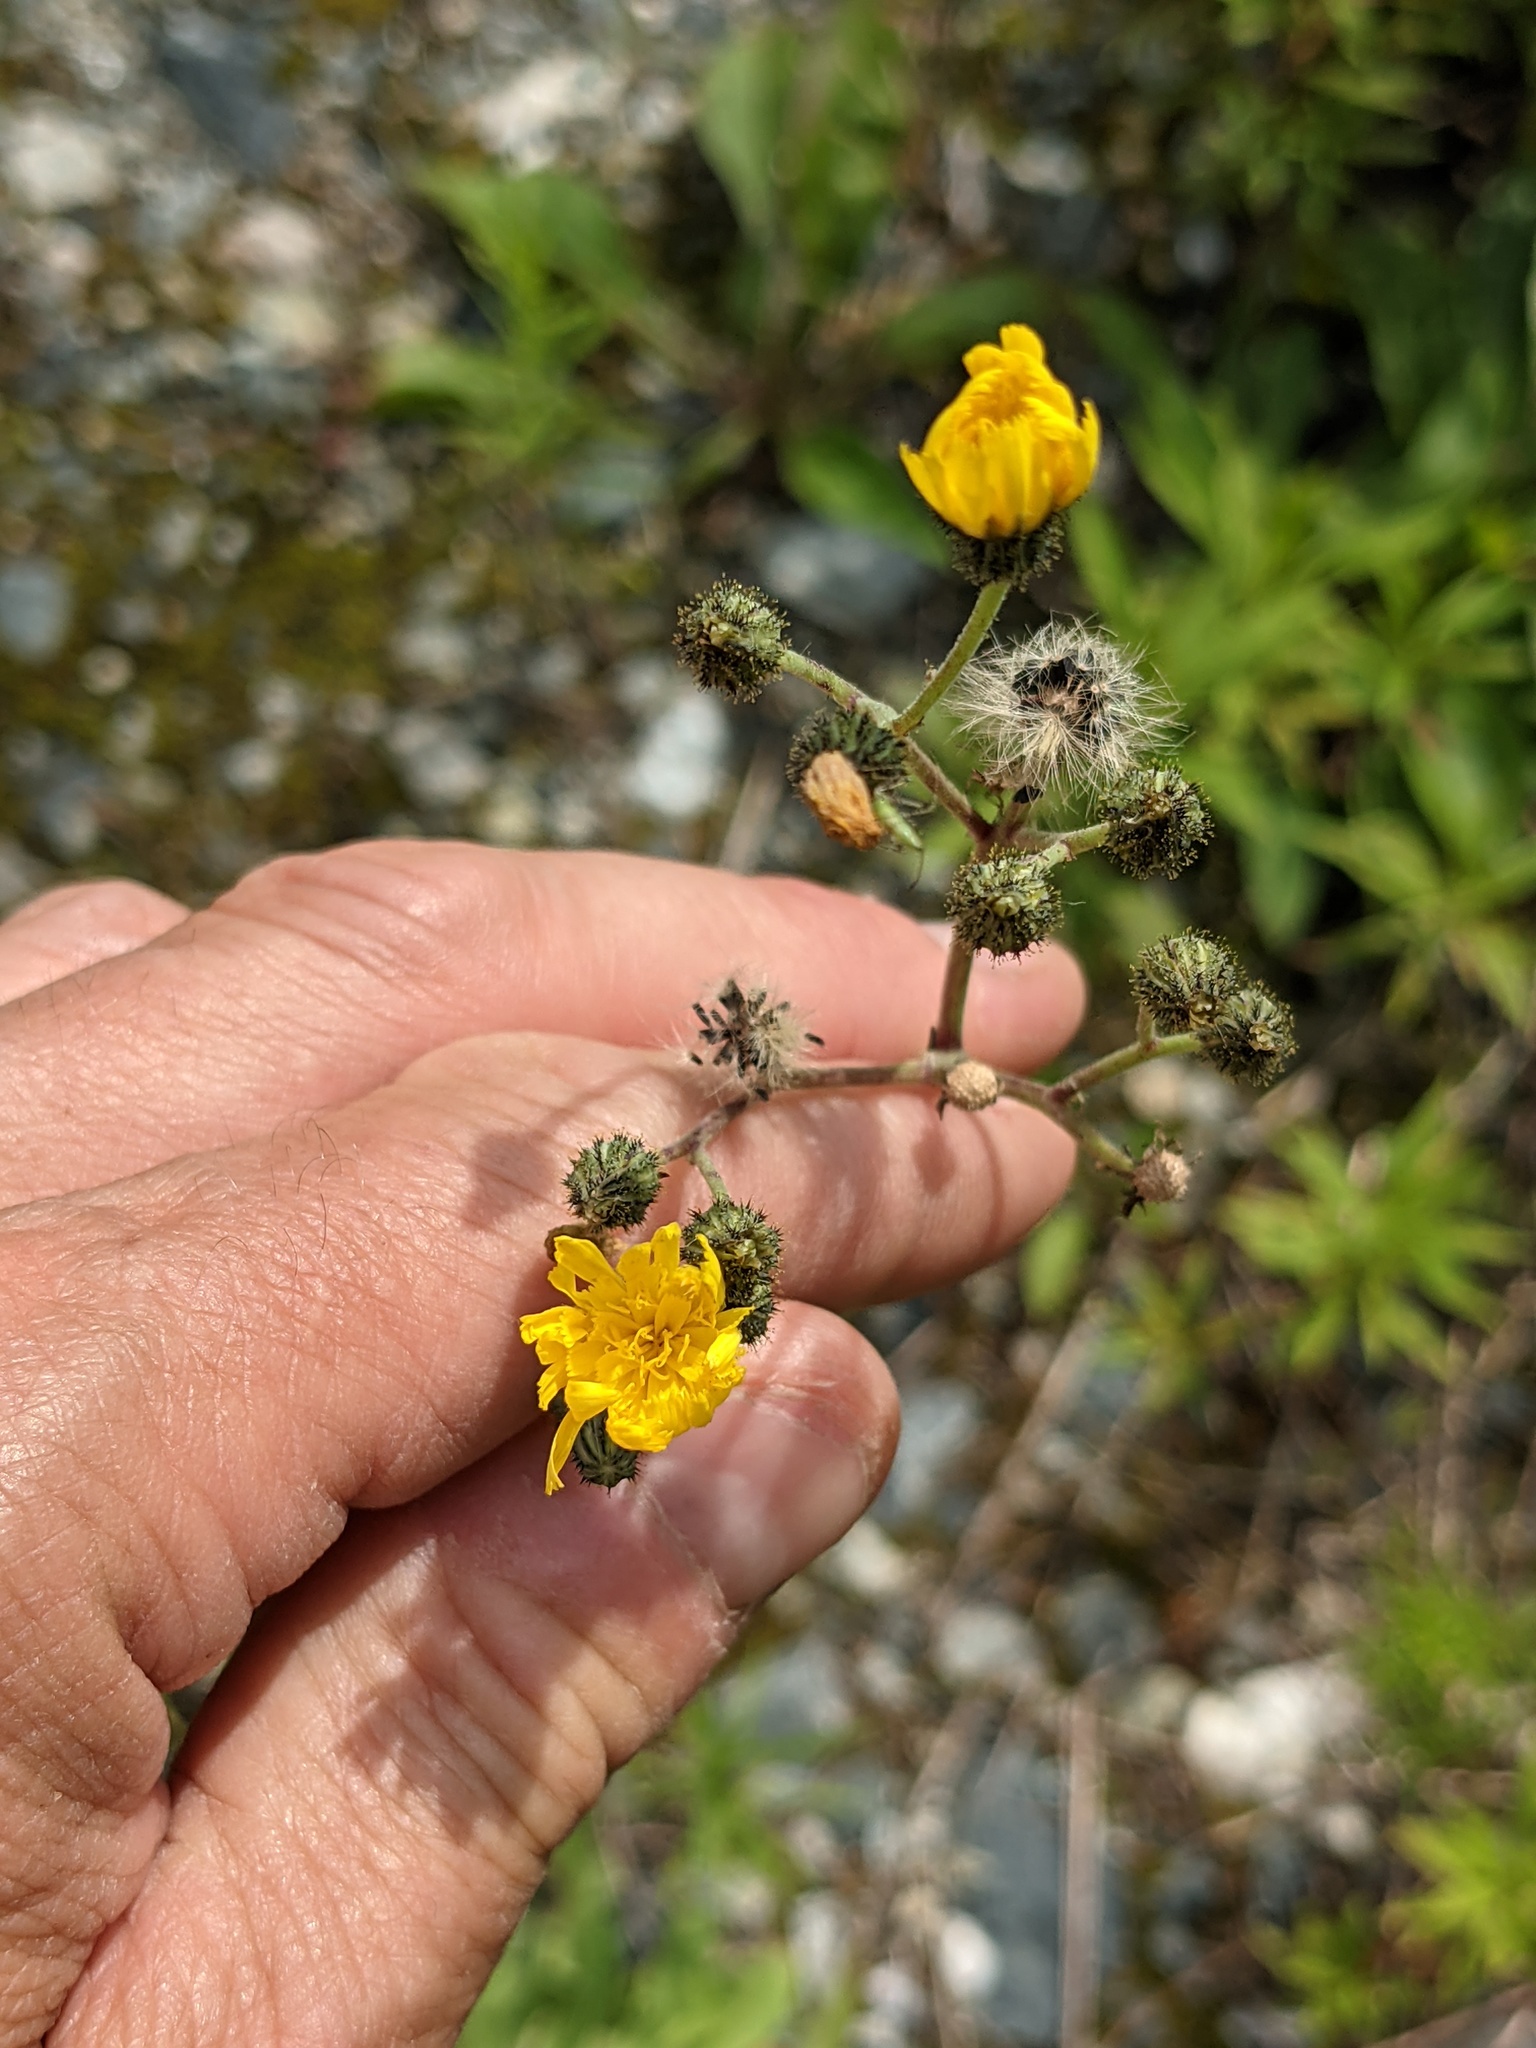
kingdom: Plantae
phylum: Tracheophyta
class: Magnoliopsida
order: Asterales
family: Asteraceae
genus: Pilosella
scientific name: Pilosella caespitosa
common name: Yellow fox-and-cubs
